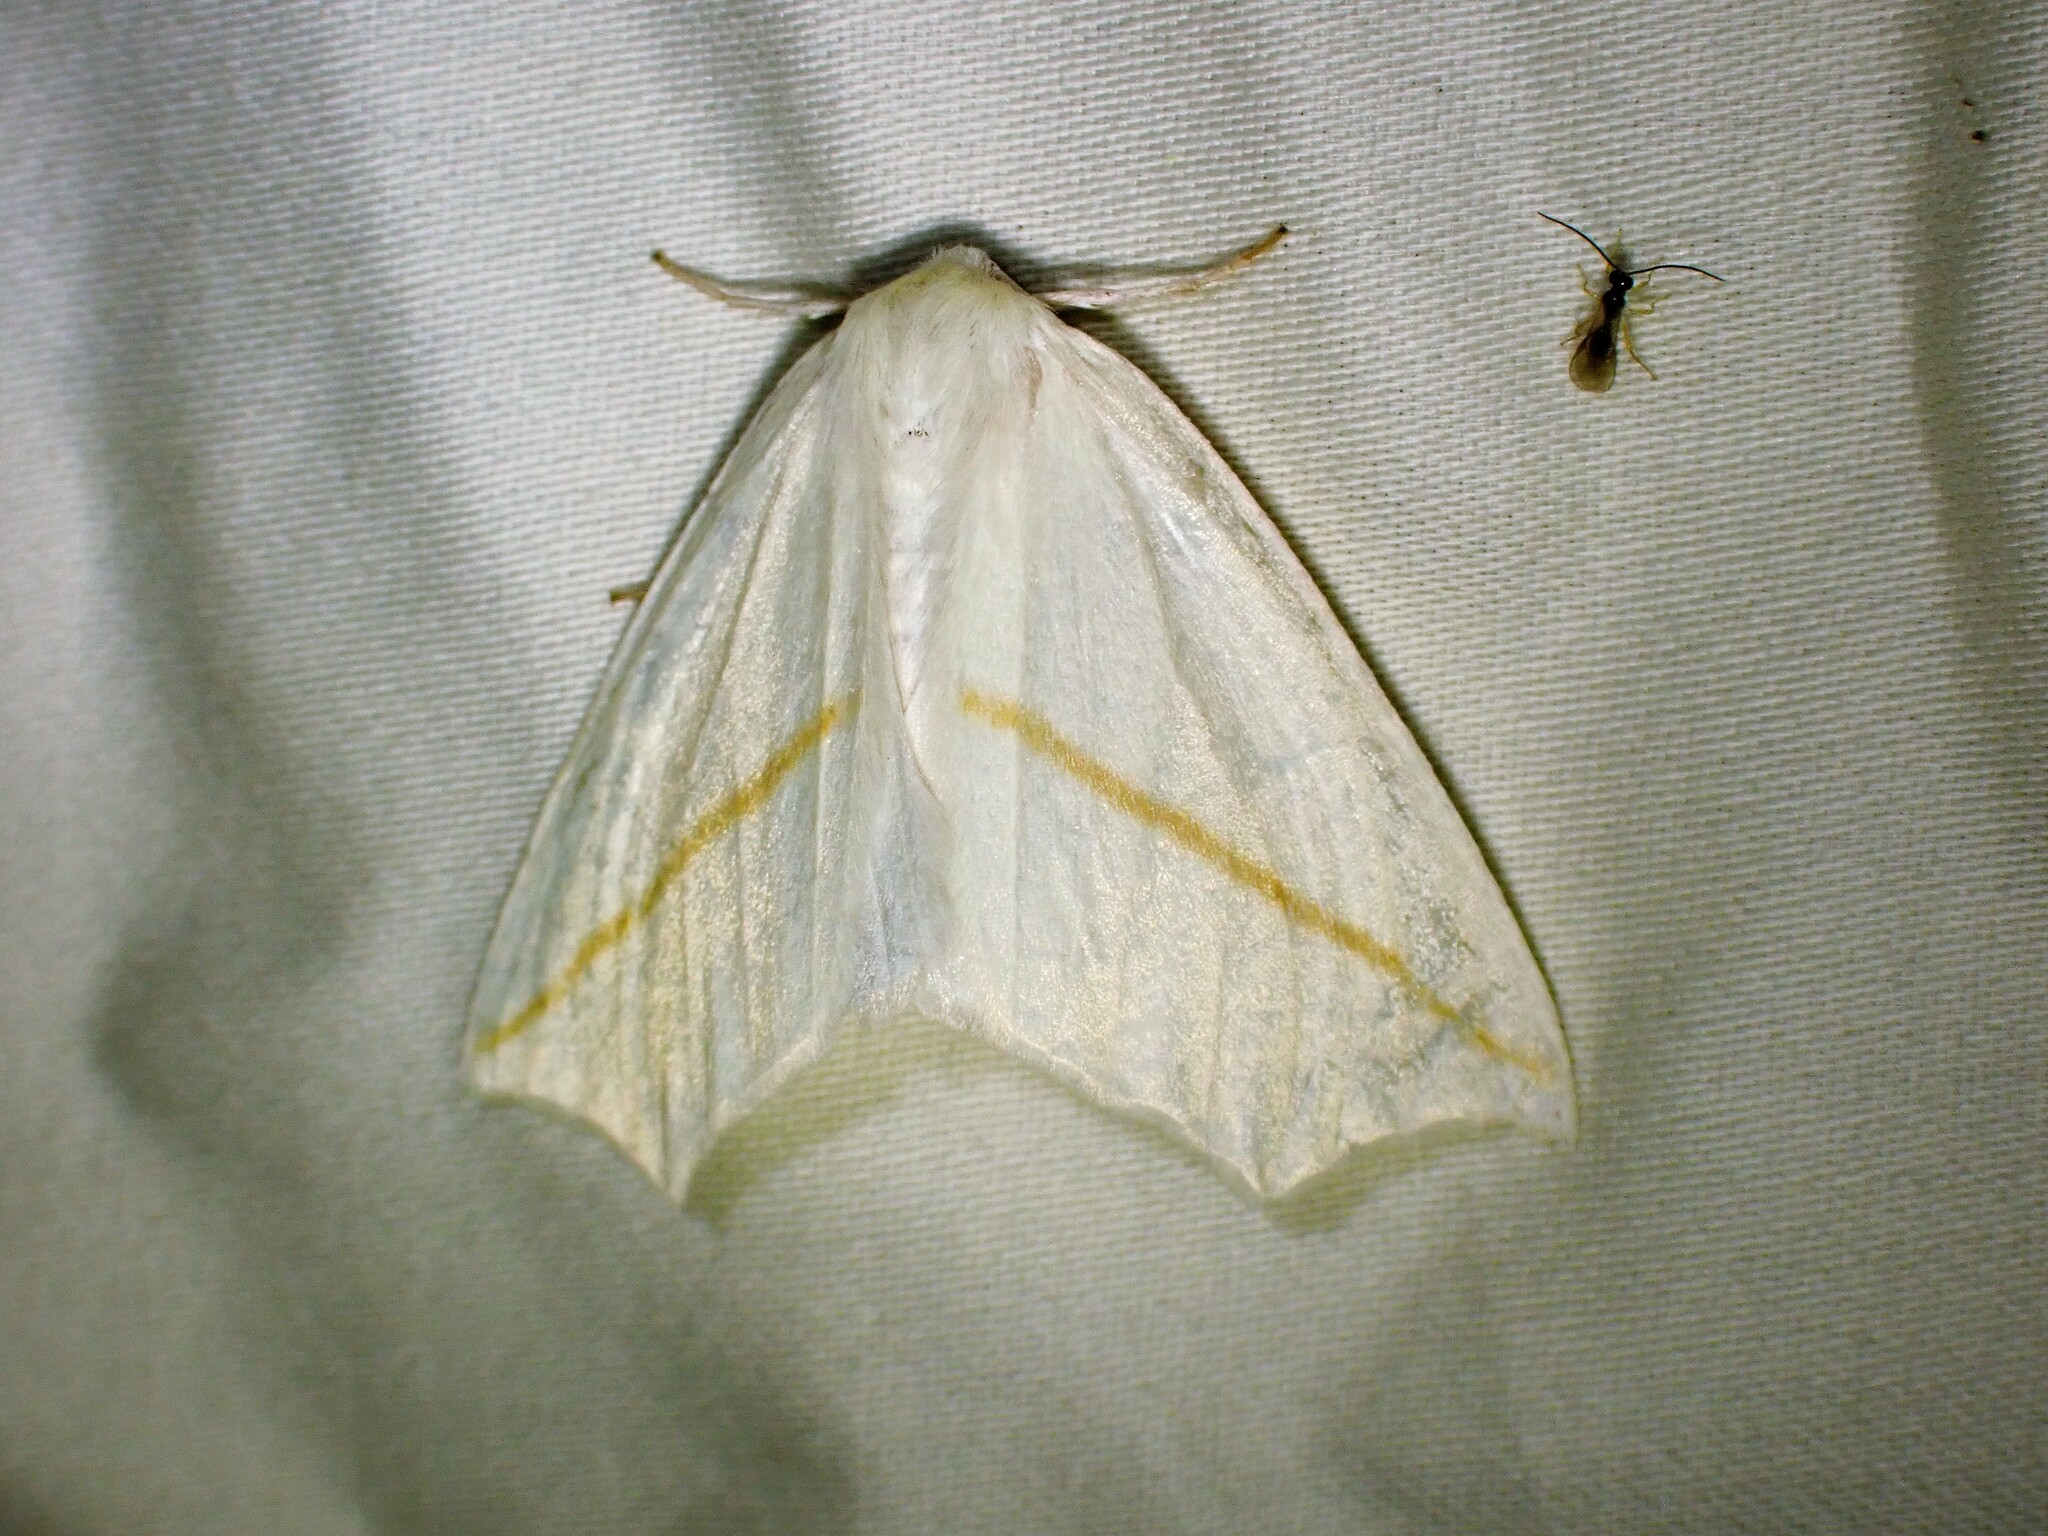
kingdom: Animalia
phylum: Arthropoda
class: Insecta
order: Lepidoptera
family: Geometridae
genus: Tetracis
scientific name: Tetracis cachexiata
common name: White slant-line
